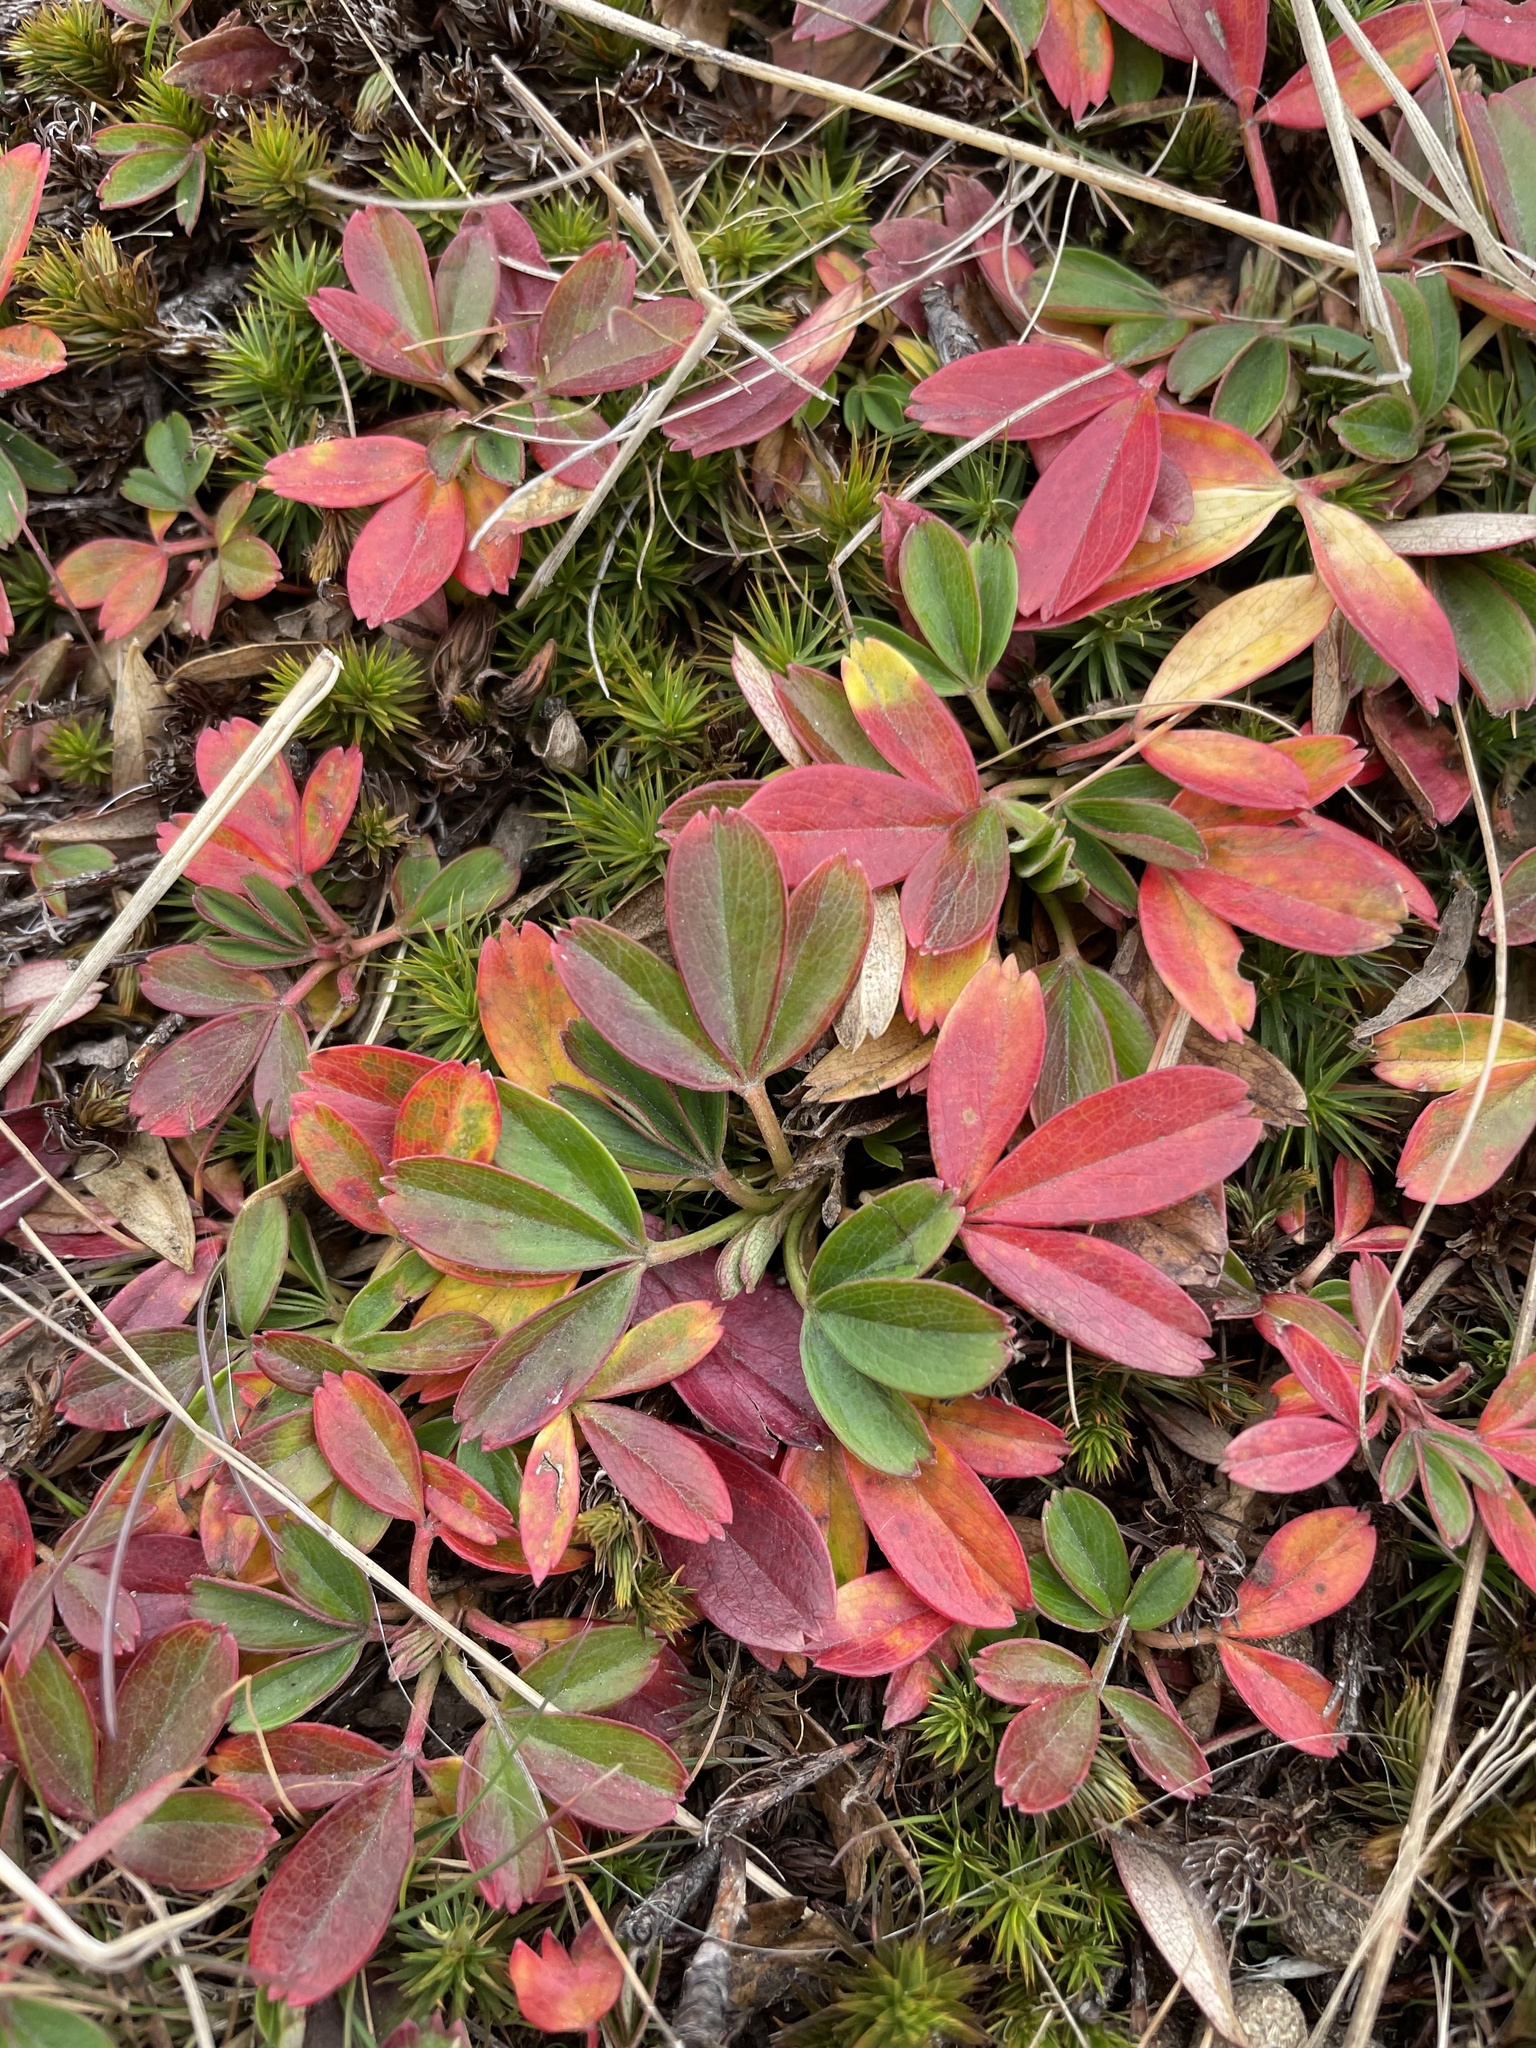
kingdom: Plantae
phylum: Tracheophyta
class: Magnoliopsida
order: Rosales
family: Rosaceae
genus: Sibbaldia
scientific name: Sibbaldia tridentata
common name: Three-toothed cinquefoil
